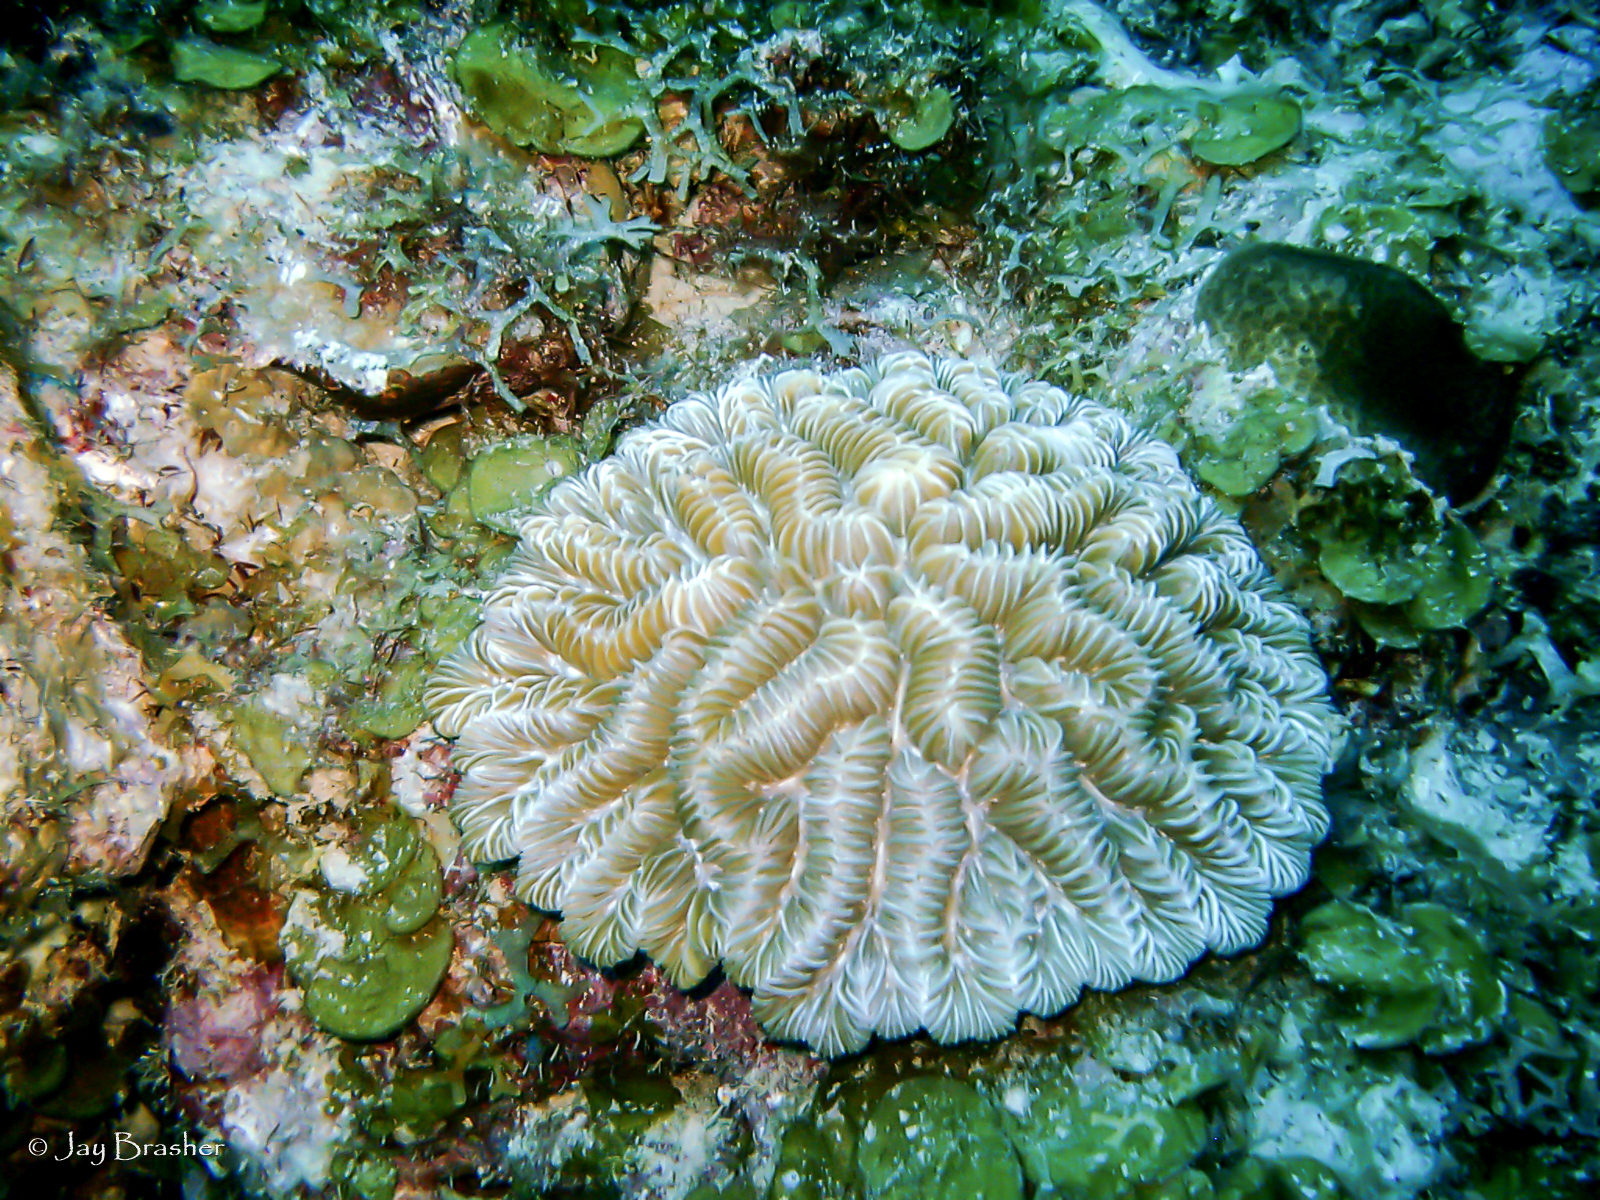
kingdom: Animalia
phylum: Cnidaria
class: Anthozoa
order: Scleractinia
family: Meandrinidae
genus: Meandrina
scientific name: Meandrina meandrites
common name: Maze coral
